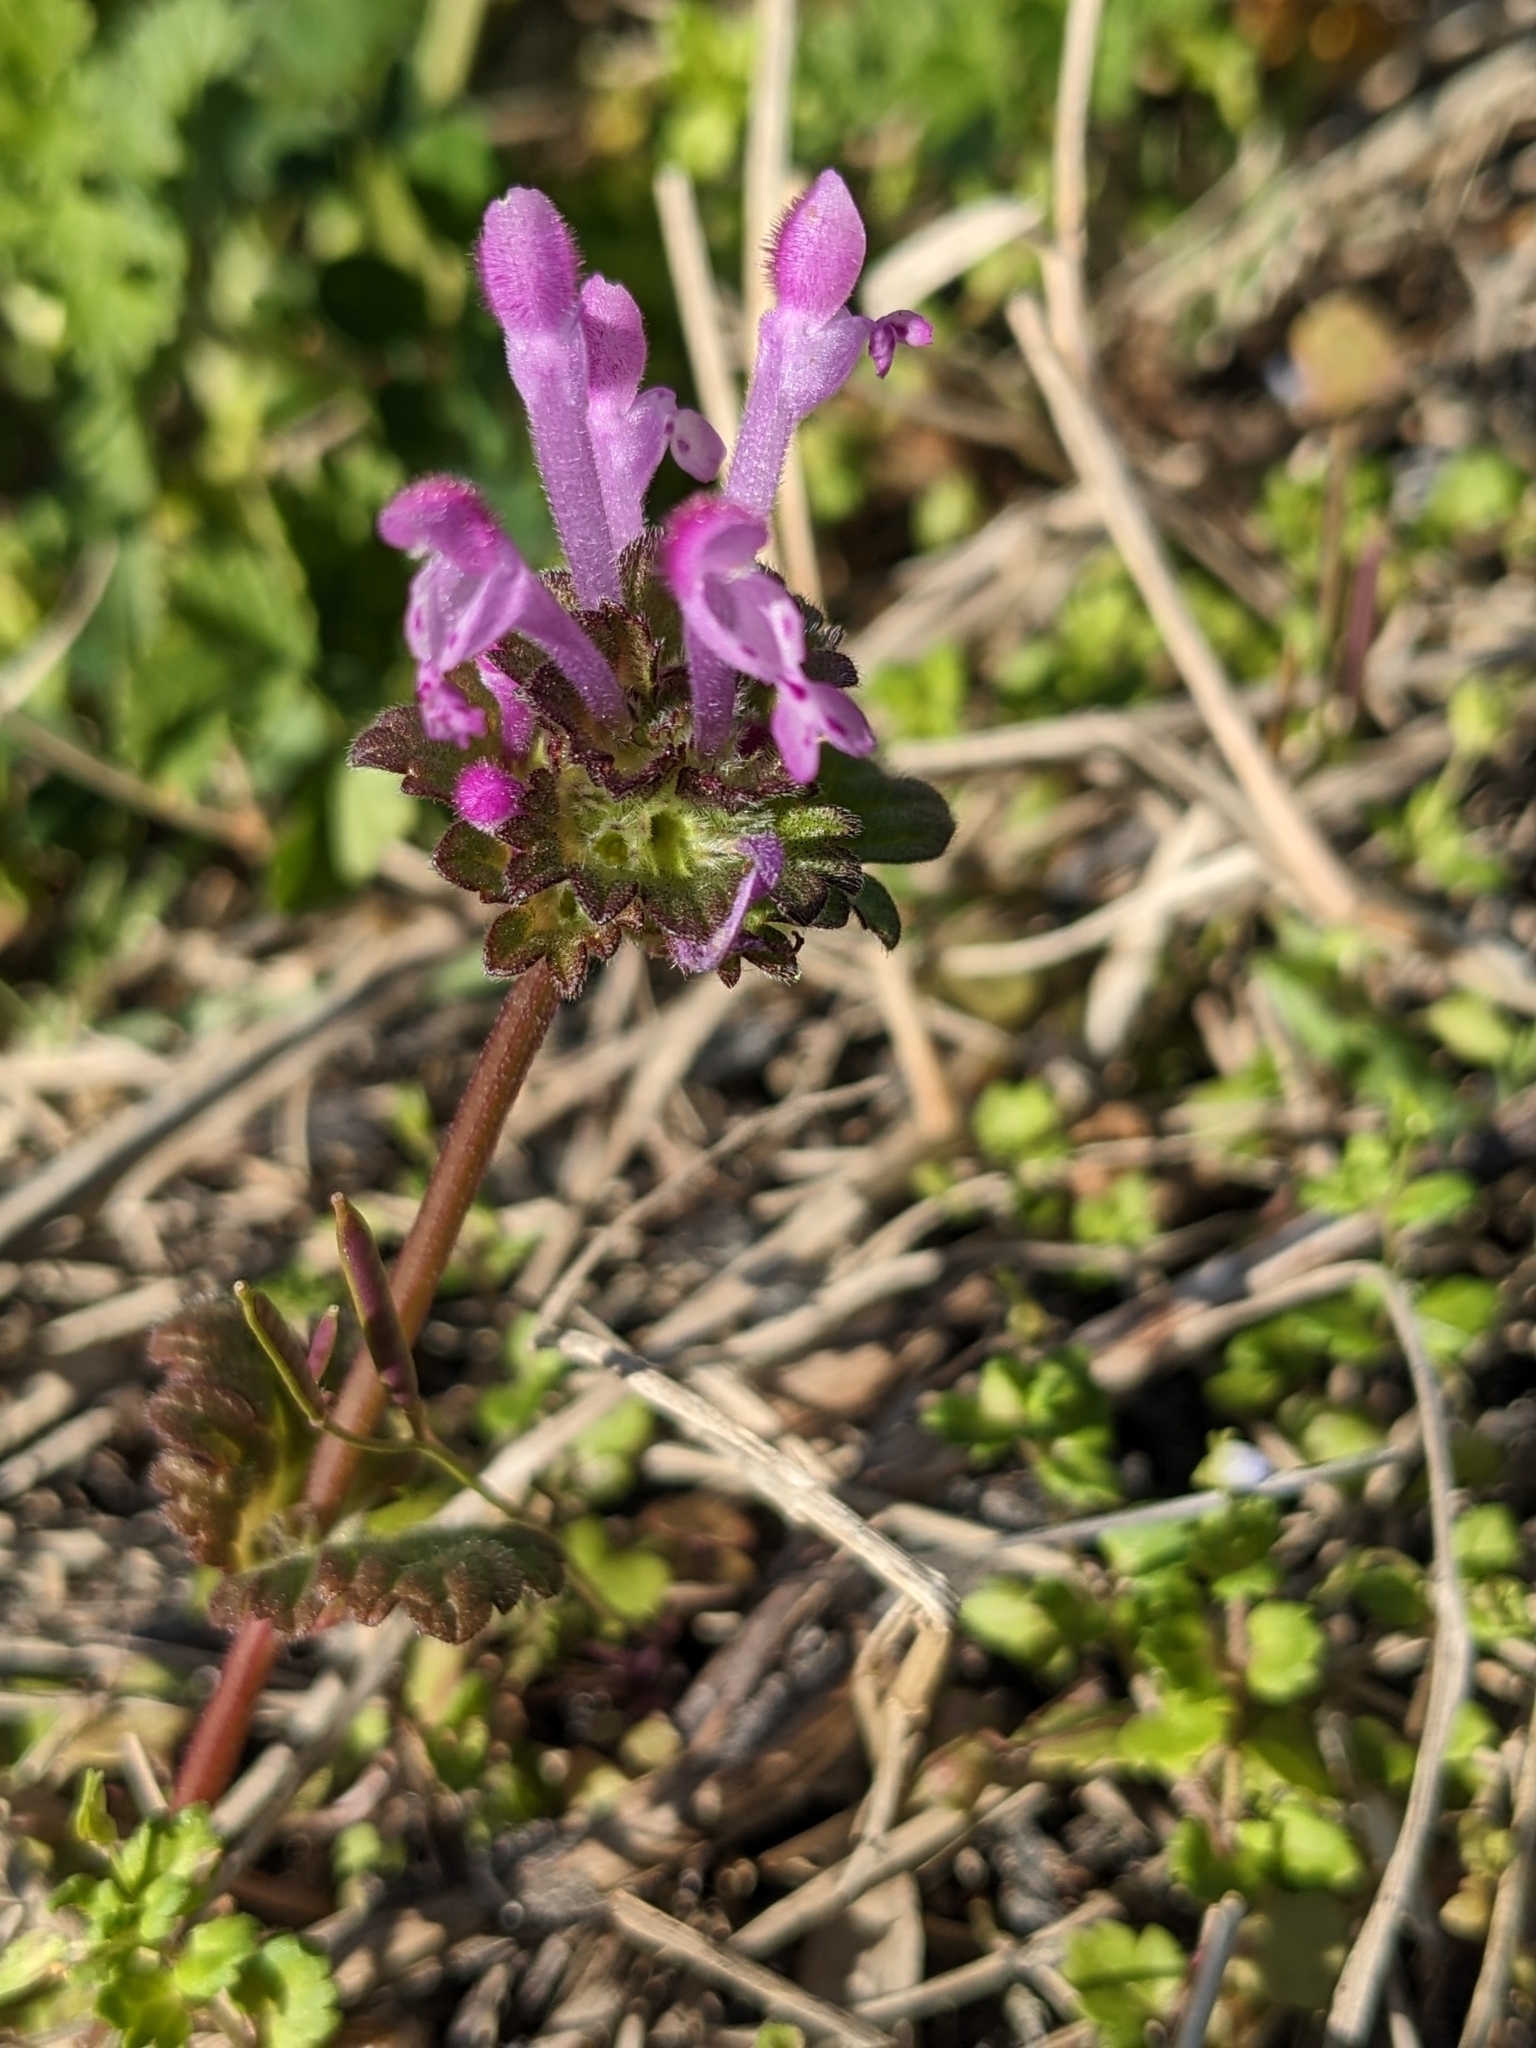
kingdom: Plantae
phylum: Tracheophyta
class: Magnoliopsida
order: Lamiales
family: Lamiaceae
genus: Lamium
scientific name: Lamium amplexicaule
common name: Henbit dead-nettle
